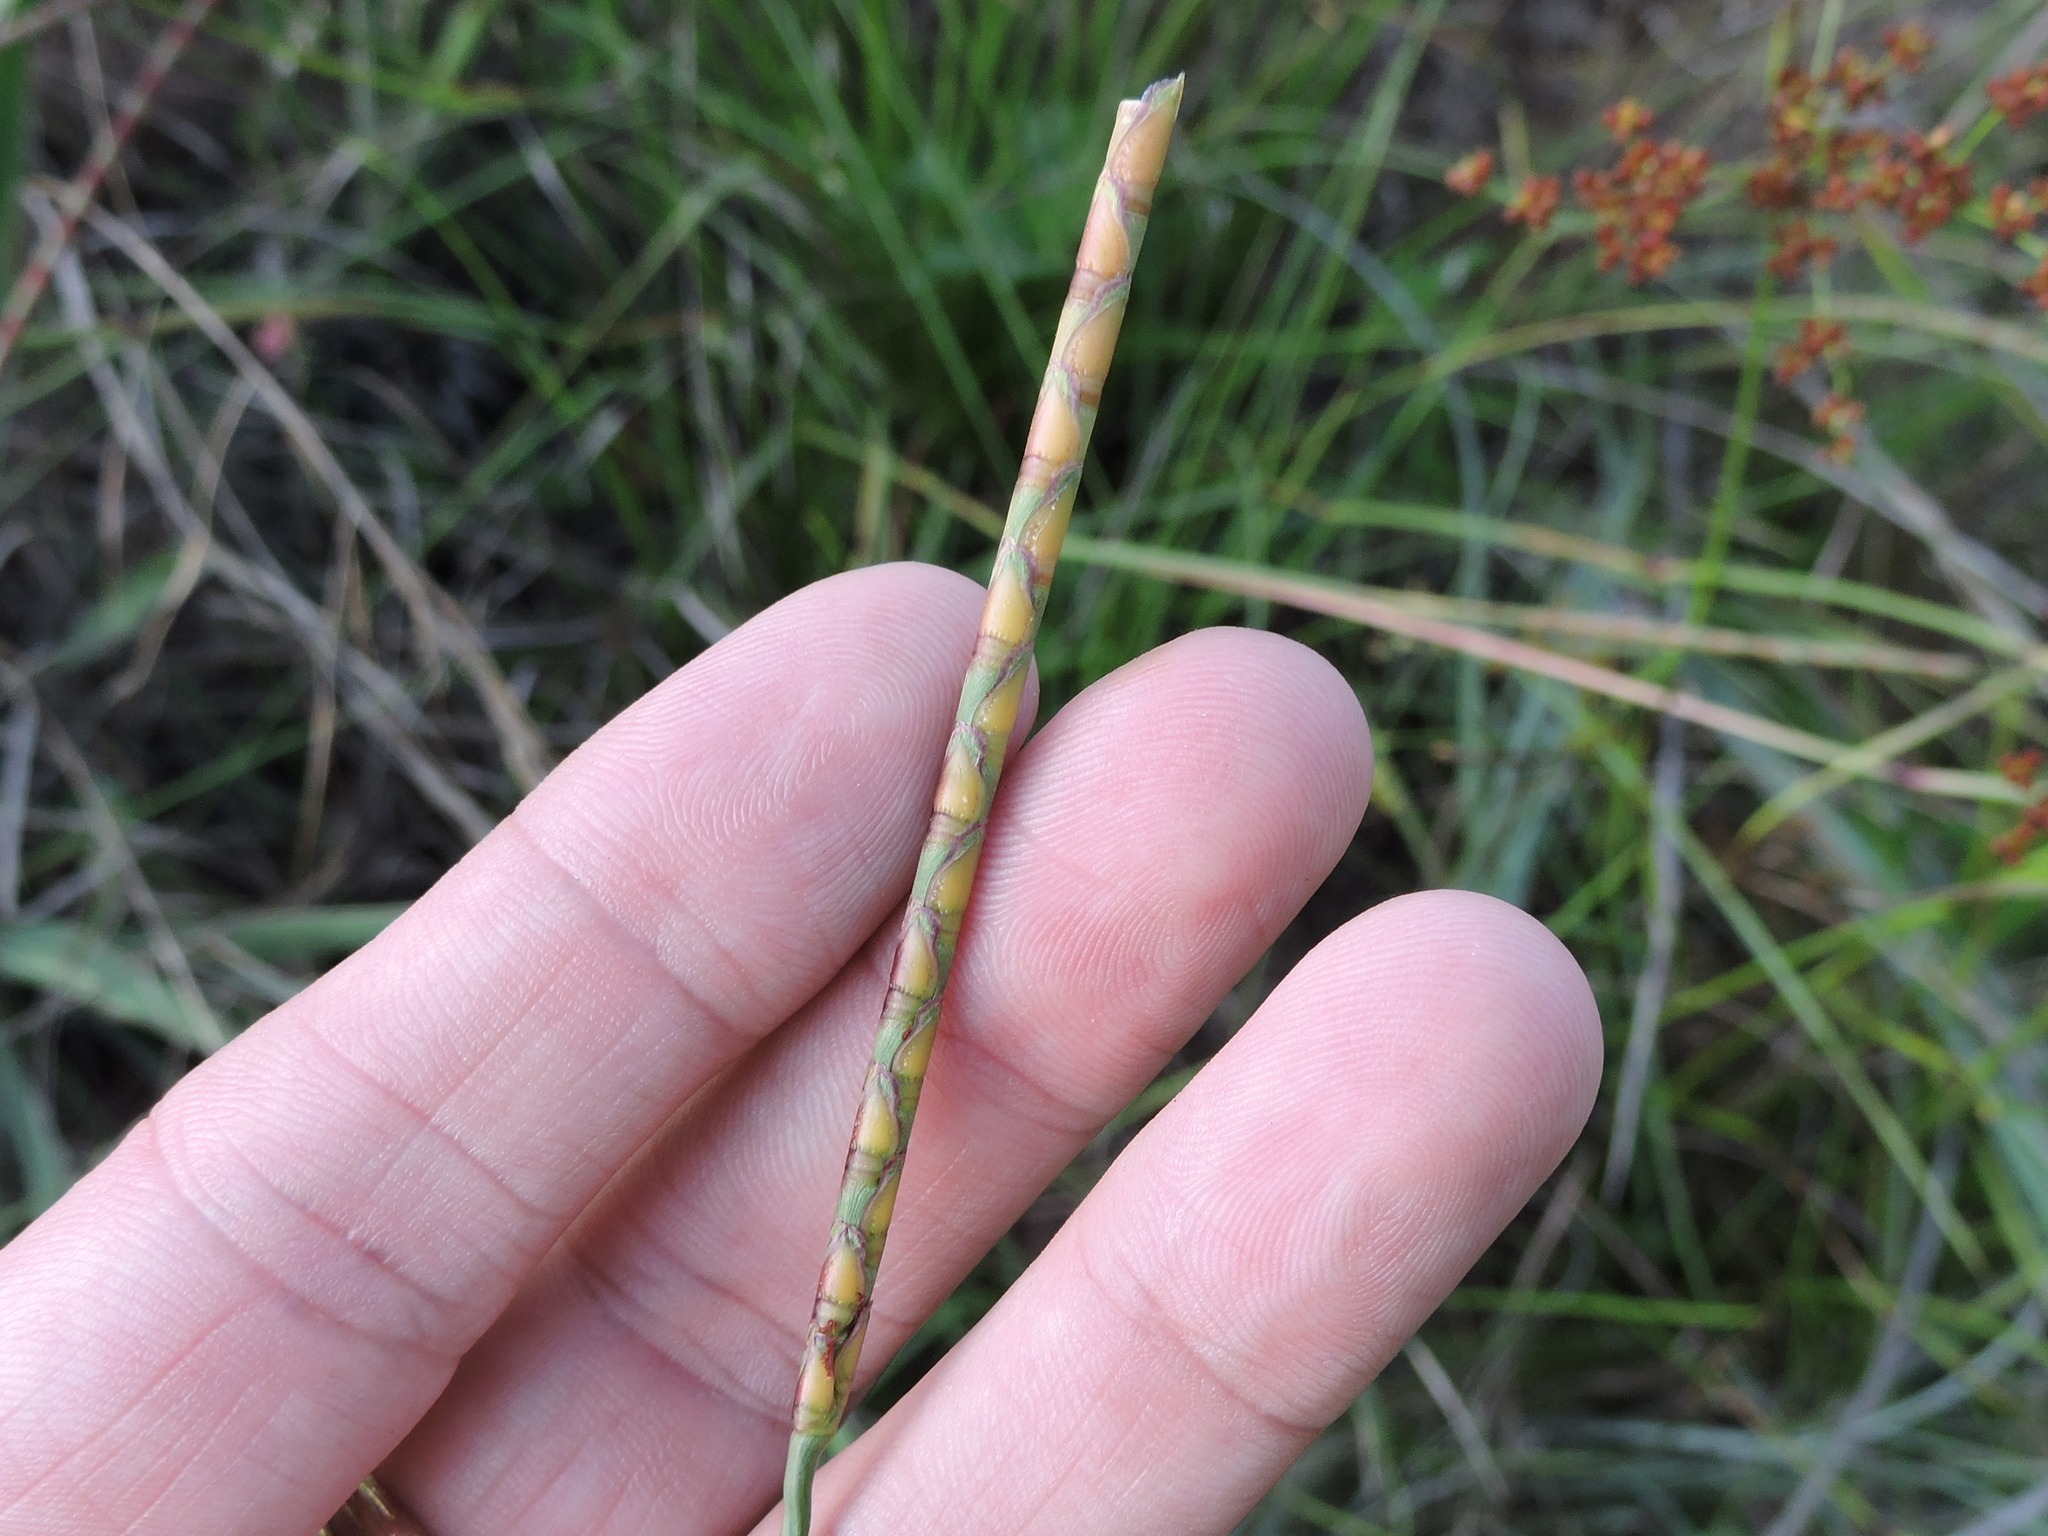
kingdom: Plantae
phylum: Tracheophyta
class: Liliopsida
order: Poales
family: Poaceae
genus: Rottboellia
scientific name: Rottboellia campestris
